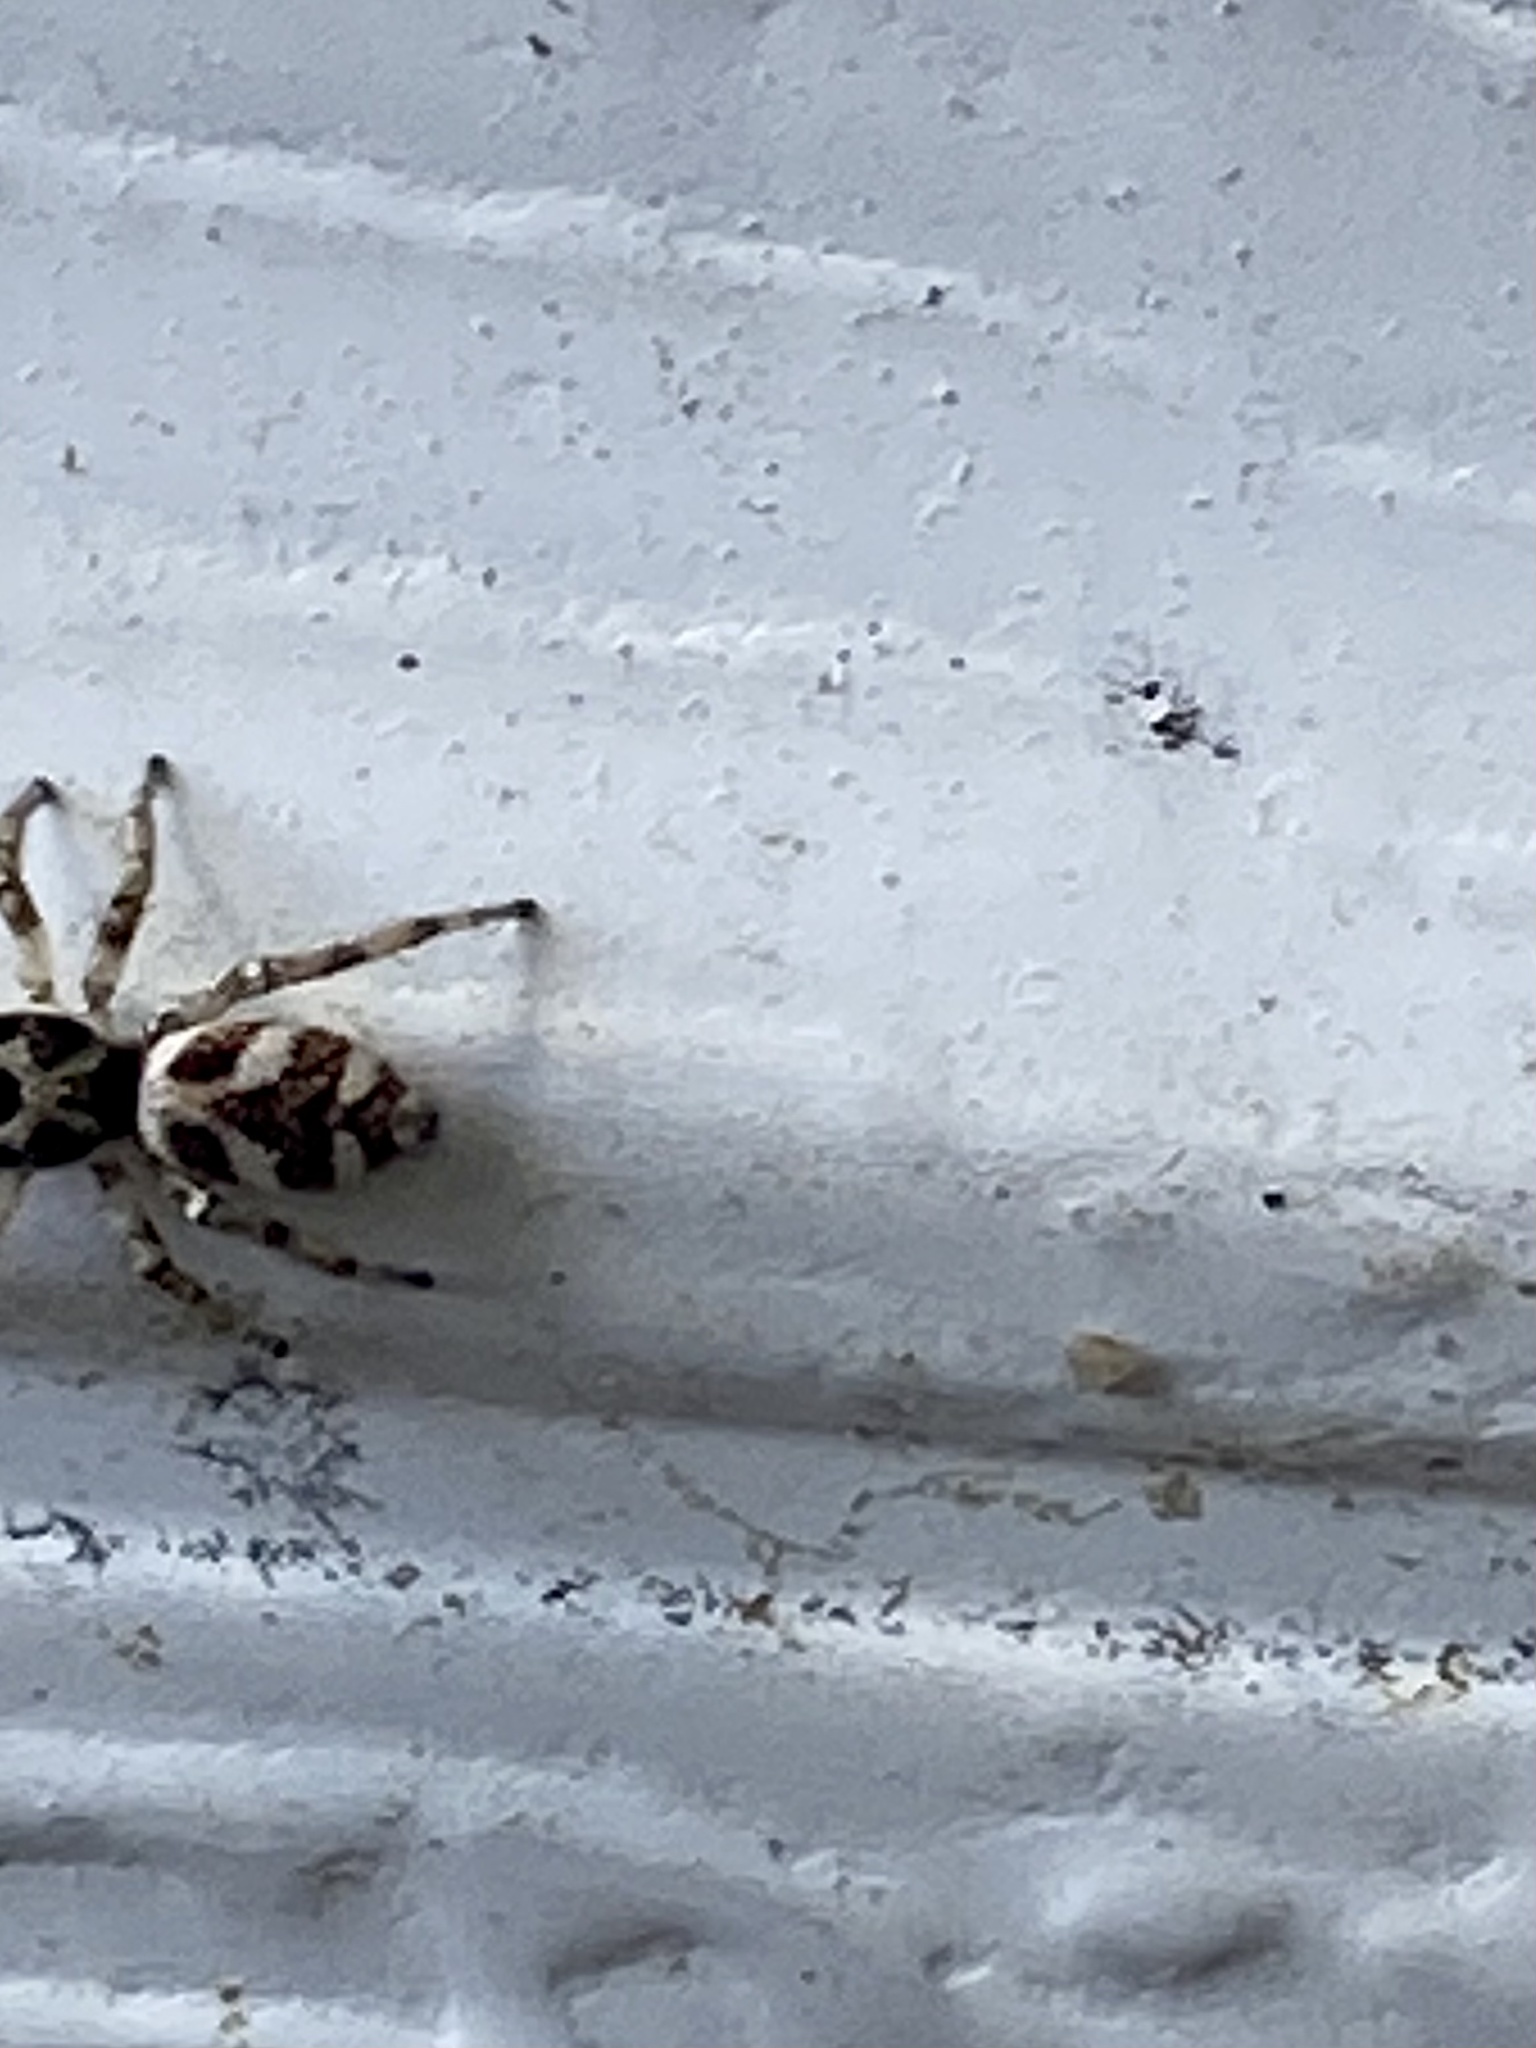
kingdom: Animalia
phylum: Arthropoda
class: Arachnida
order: Araneae
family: Salticidae
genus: Salticus
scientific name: Salticus scenicus
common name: Zebra jumper
